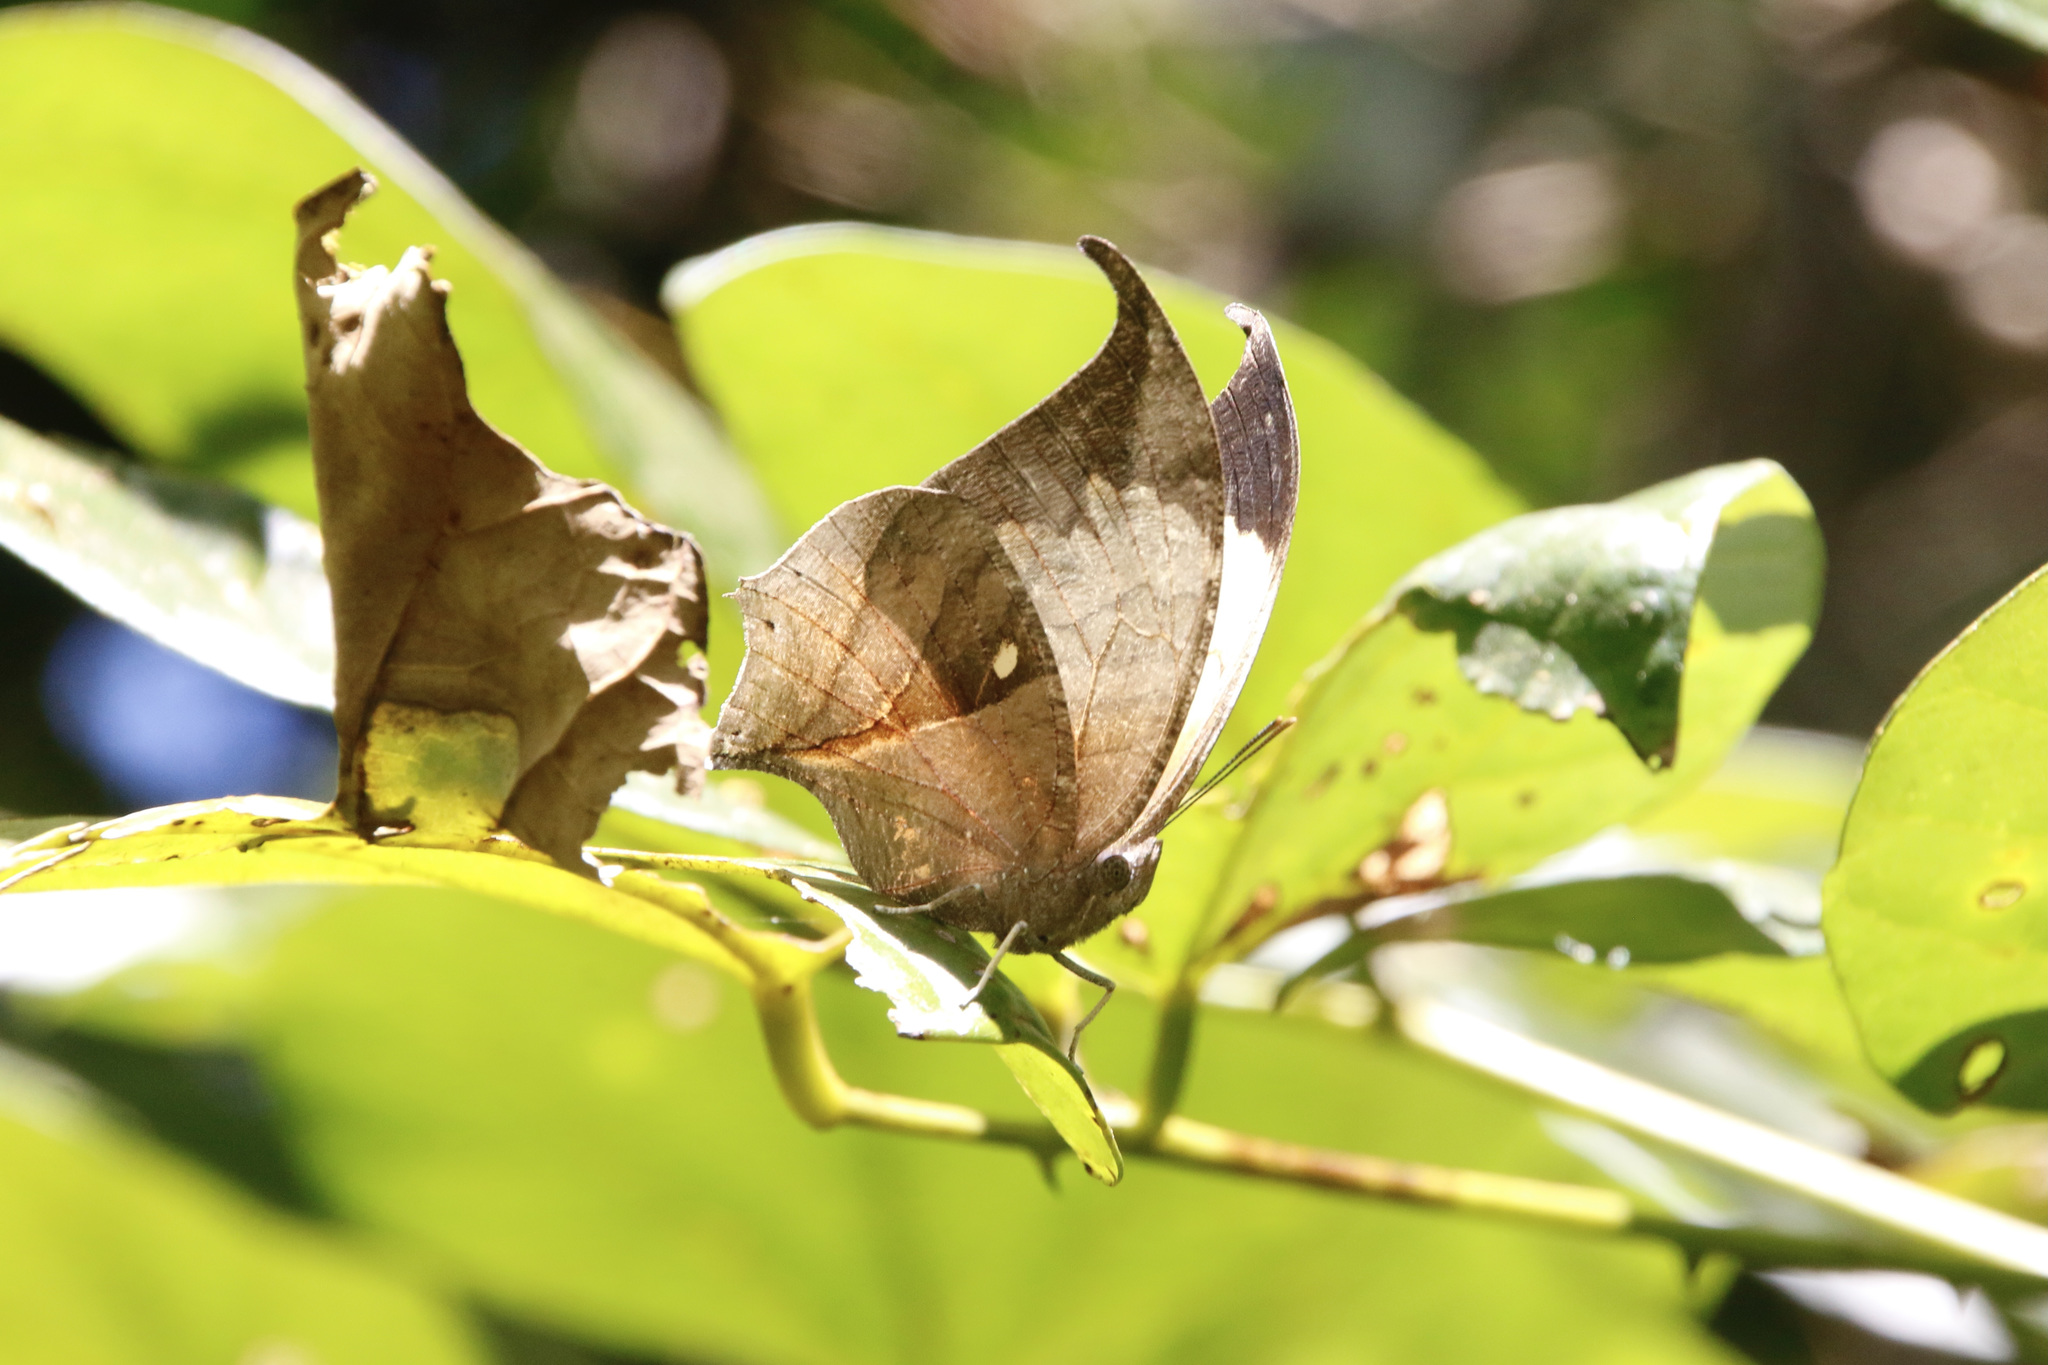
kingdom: Animalia
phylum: Arthropoda
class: Insecta
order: Lepidoptera
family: Nymphalidae
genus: Consul
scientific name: Consul electra
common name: Pearly leafwing
